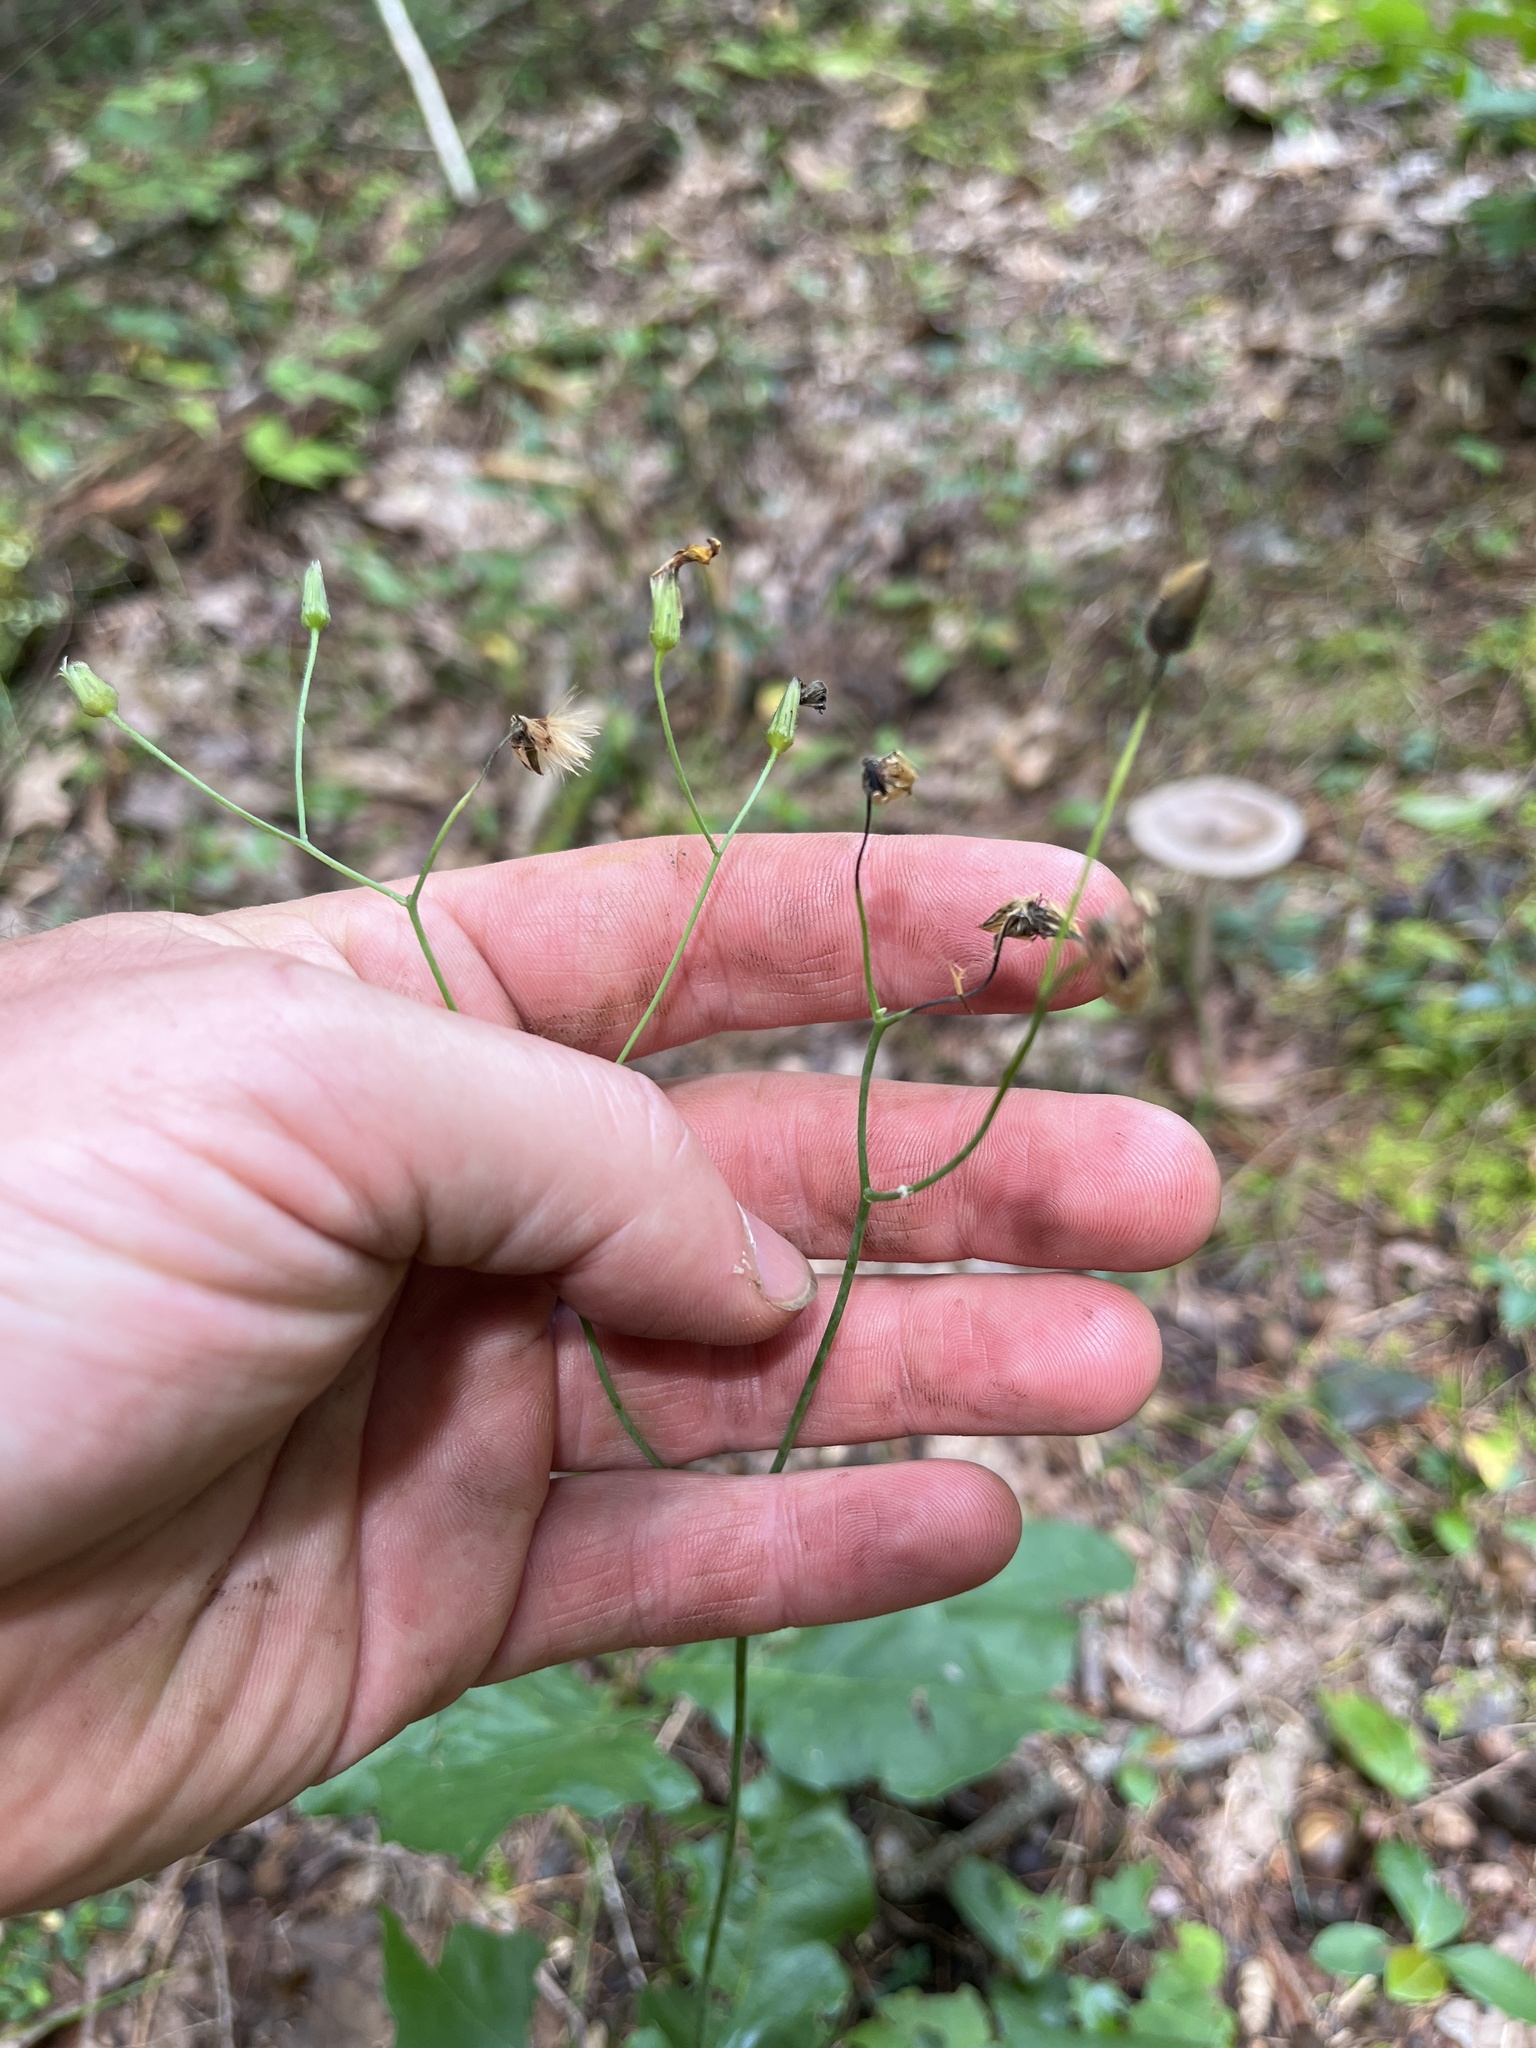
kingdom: Plantae
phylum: Tracheophyta
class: Magnoliopsida
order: Asterales
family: Asteraceae
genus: Hieracium
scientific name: Hieracium venosum
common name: Rattlesnake hawkweed
